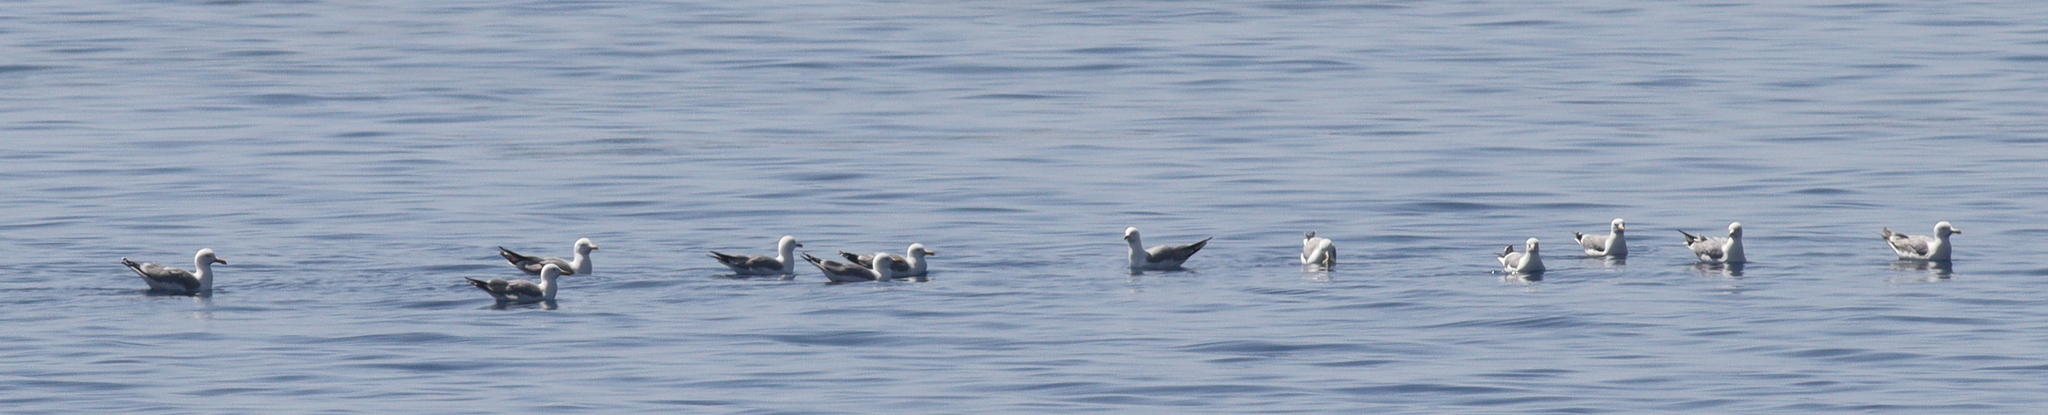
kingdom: Animalia
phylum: Chordata
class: Aves
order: Charadriiformes
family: Laridae
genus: Larus
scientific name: Larus michahellis
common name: Yellow-legged gull
